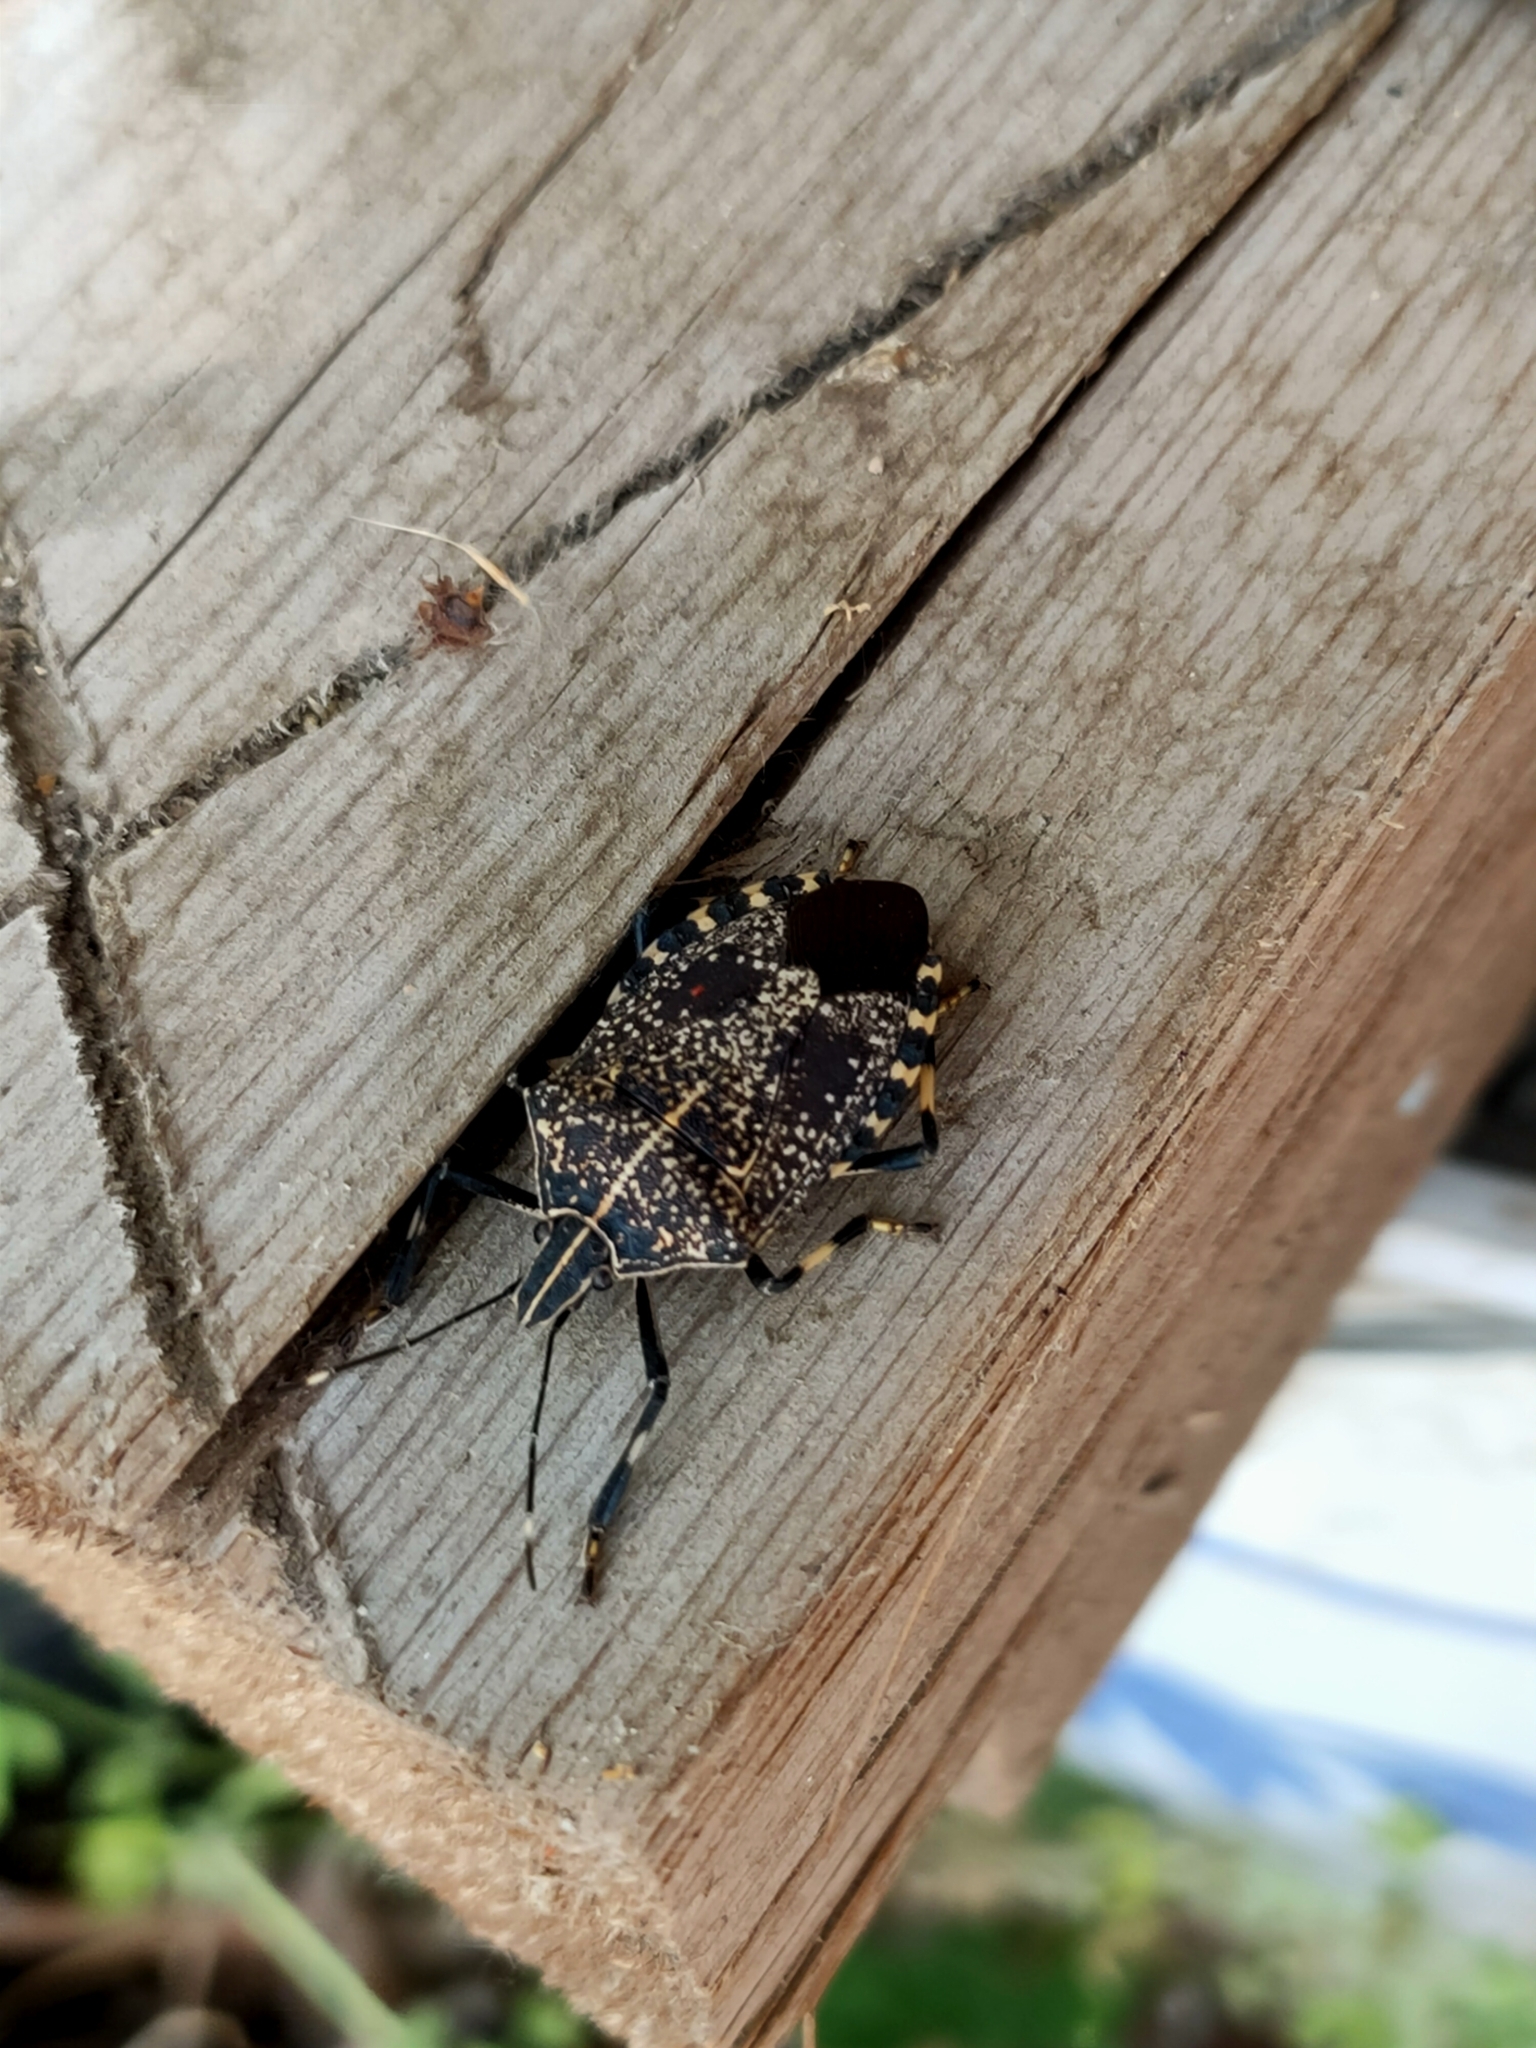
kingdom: Animalia
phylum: Arthropoda
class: Insecta
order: Hemiptera
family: Pentatomidae
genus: Erthesina
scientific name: Erthesina fullo
